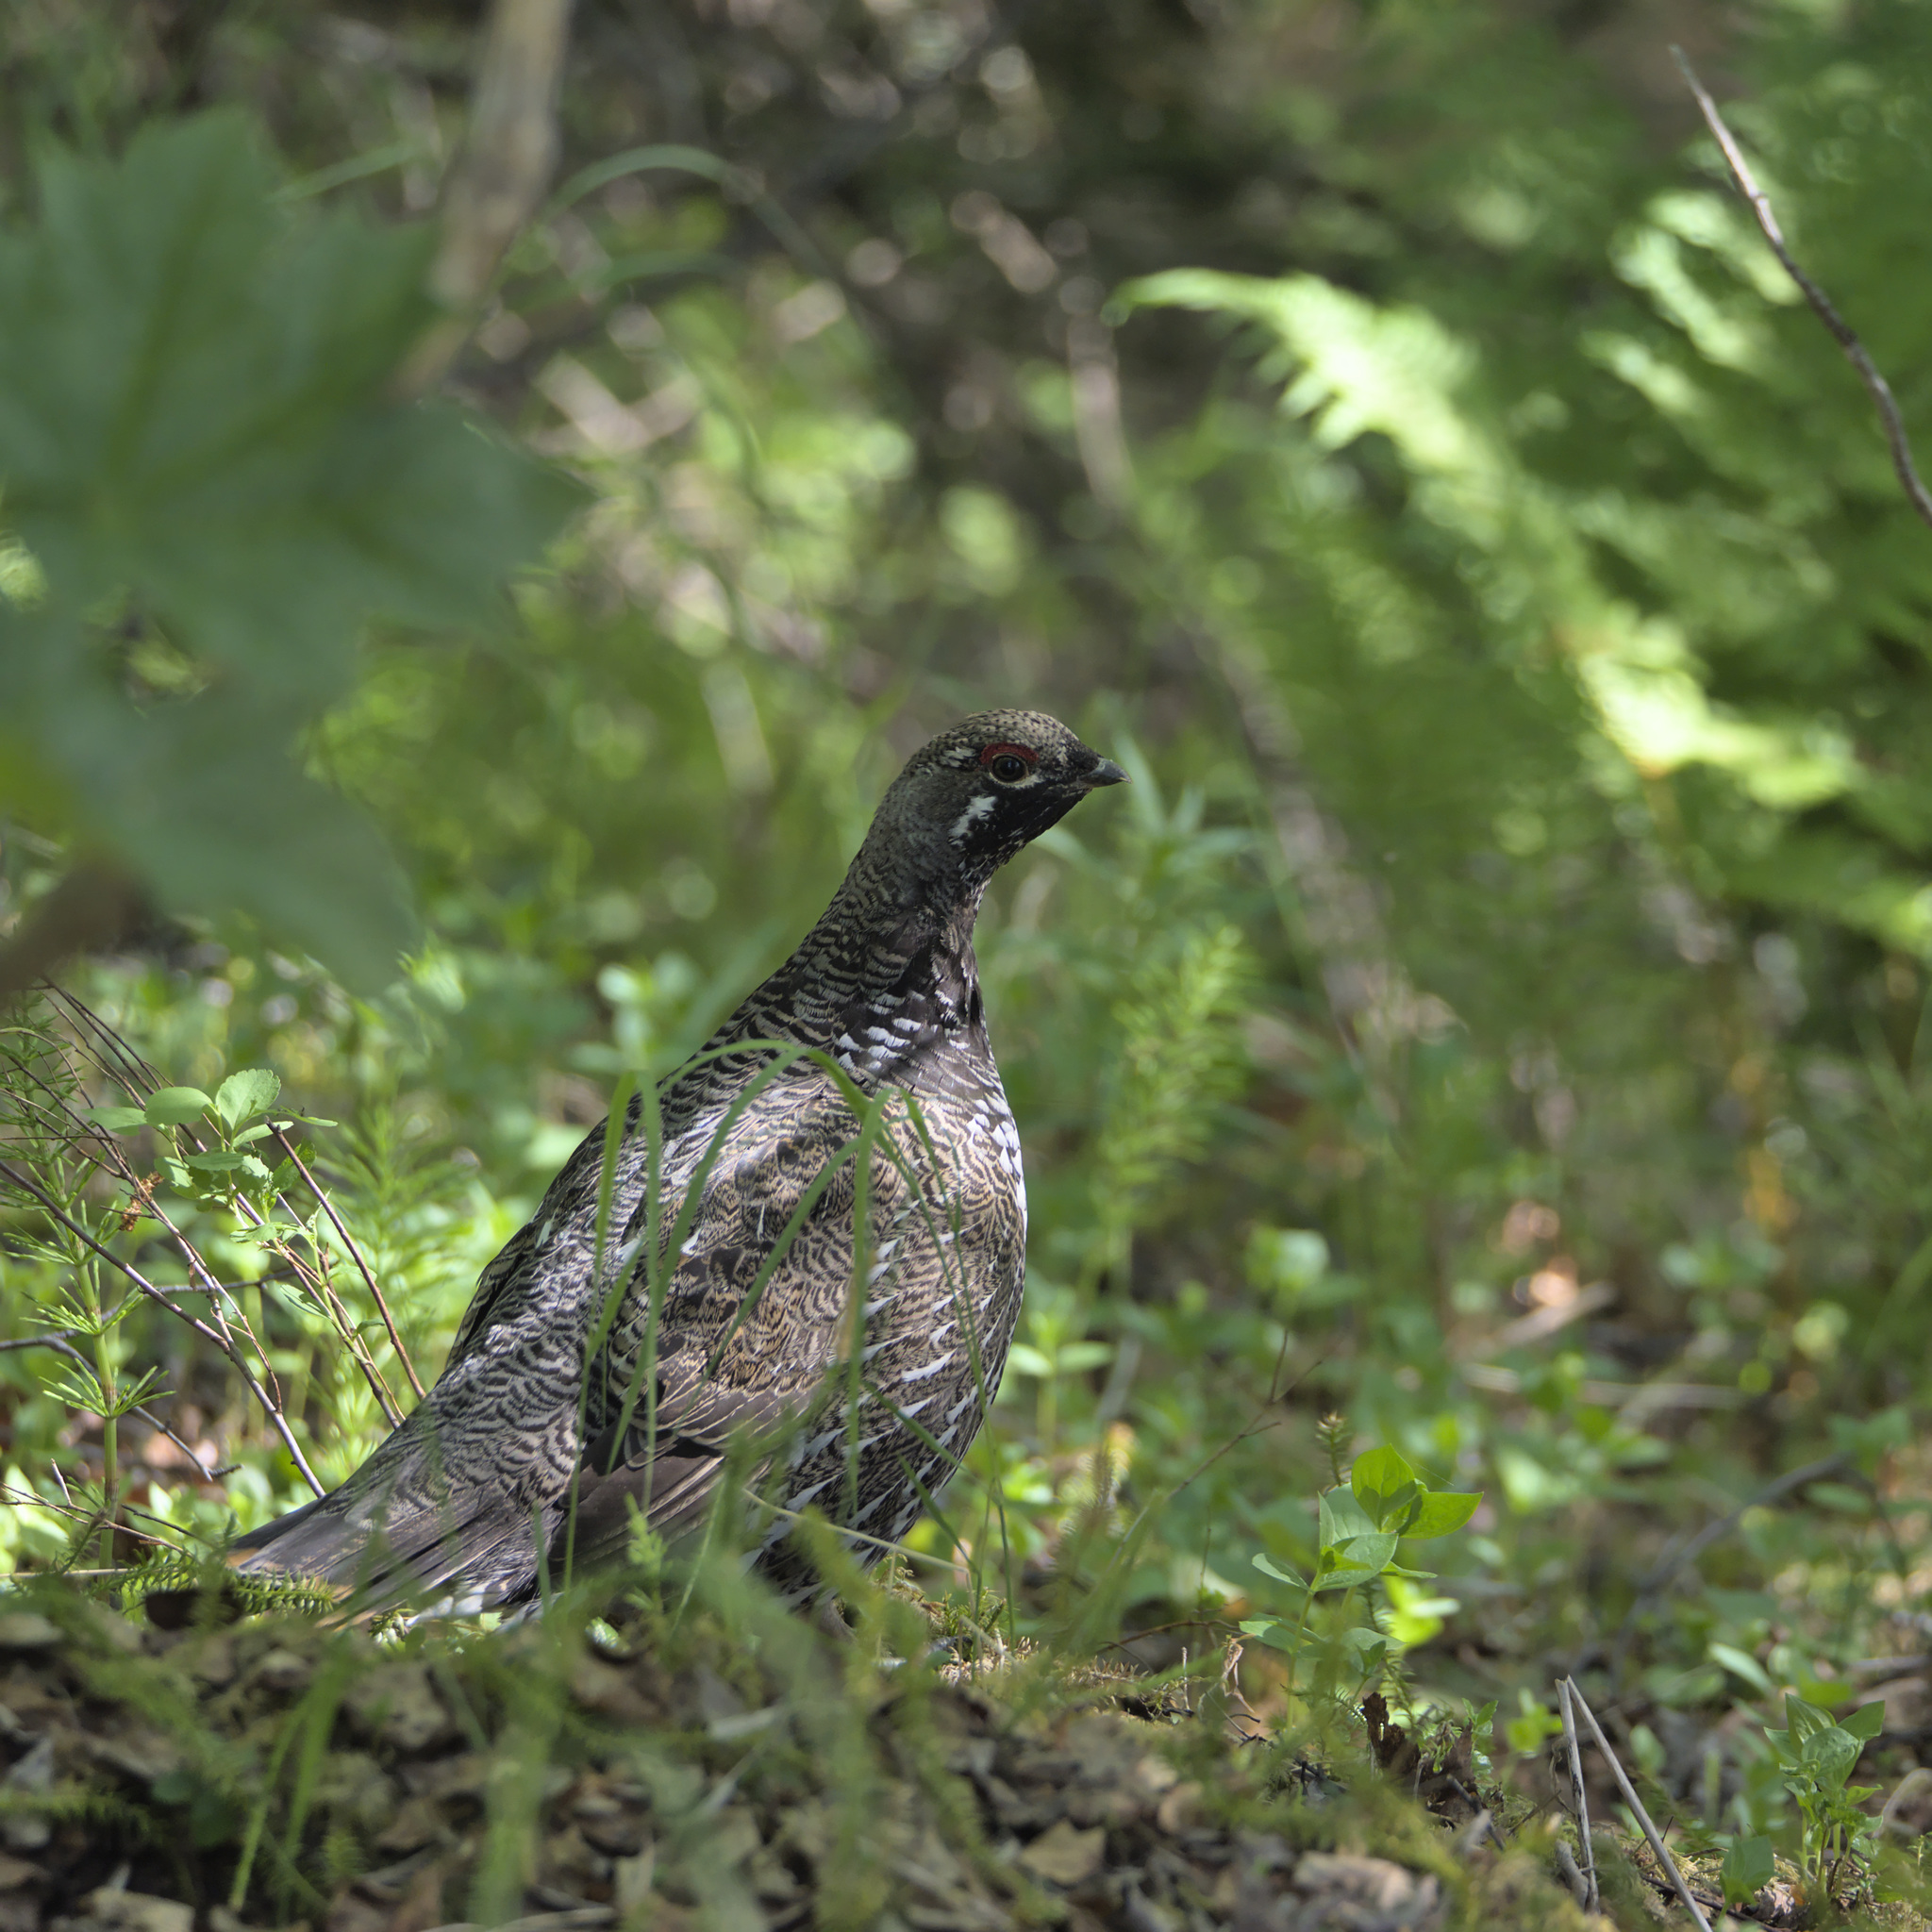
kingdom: Animalia
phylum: Chordata
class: Aves
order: Galliformes
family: Phasianidae
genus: Canachites
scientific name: Canachites canadensis
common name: Spruce grouse
